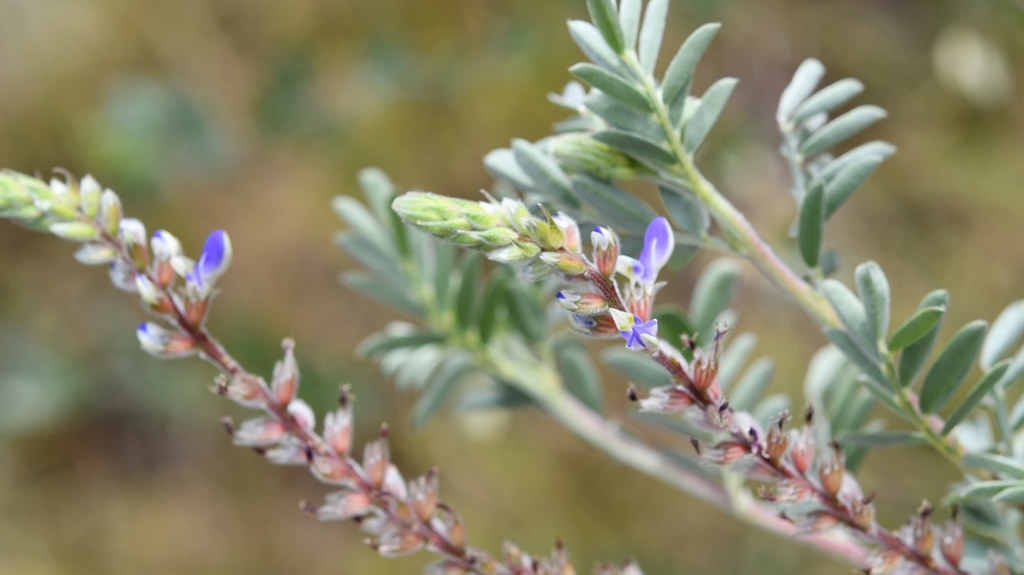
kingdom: Plantae
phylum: Tracheophyta
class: Magnoliopsida
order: Fabales
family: Fabaceae
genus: Marina
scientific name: Marina spiciformis
